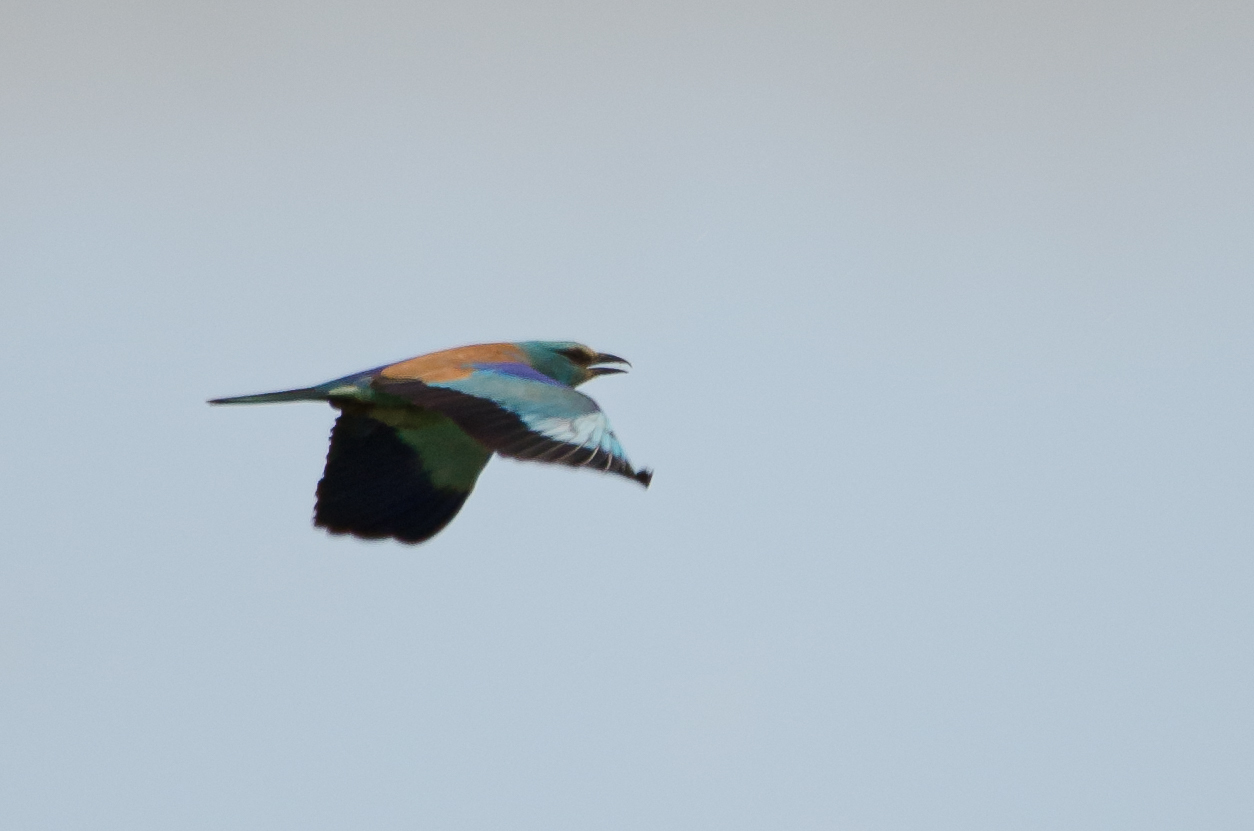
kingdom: Animalia
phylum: Chordata
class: Aves
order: Coraciiformes
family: Coraciidae
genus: Coracias
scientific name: Coracias garrulus
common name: European roller
